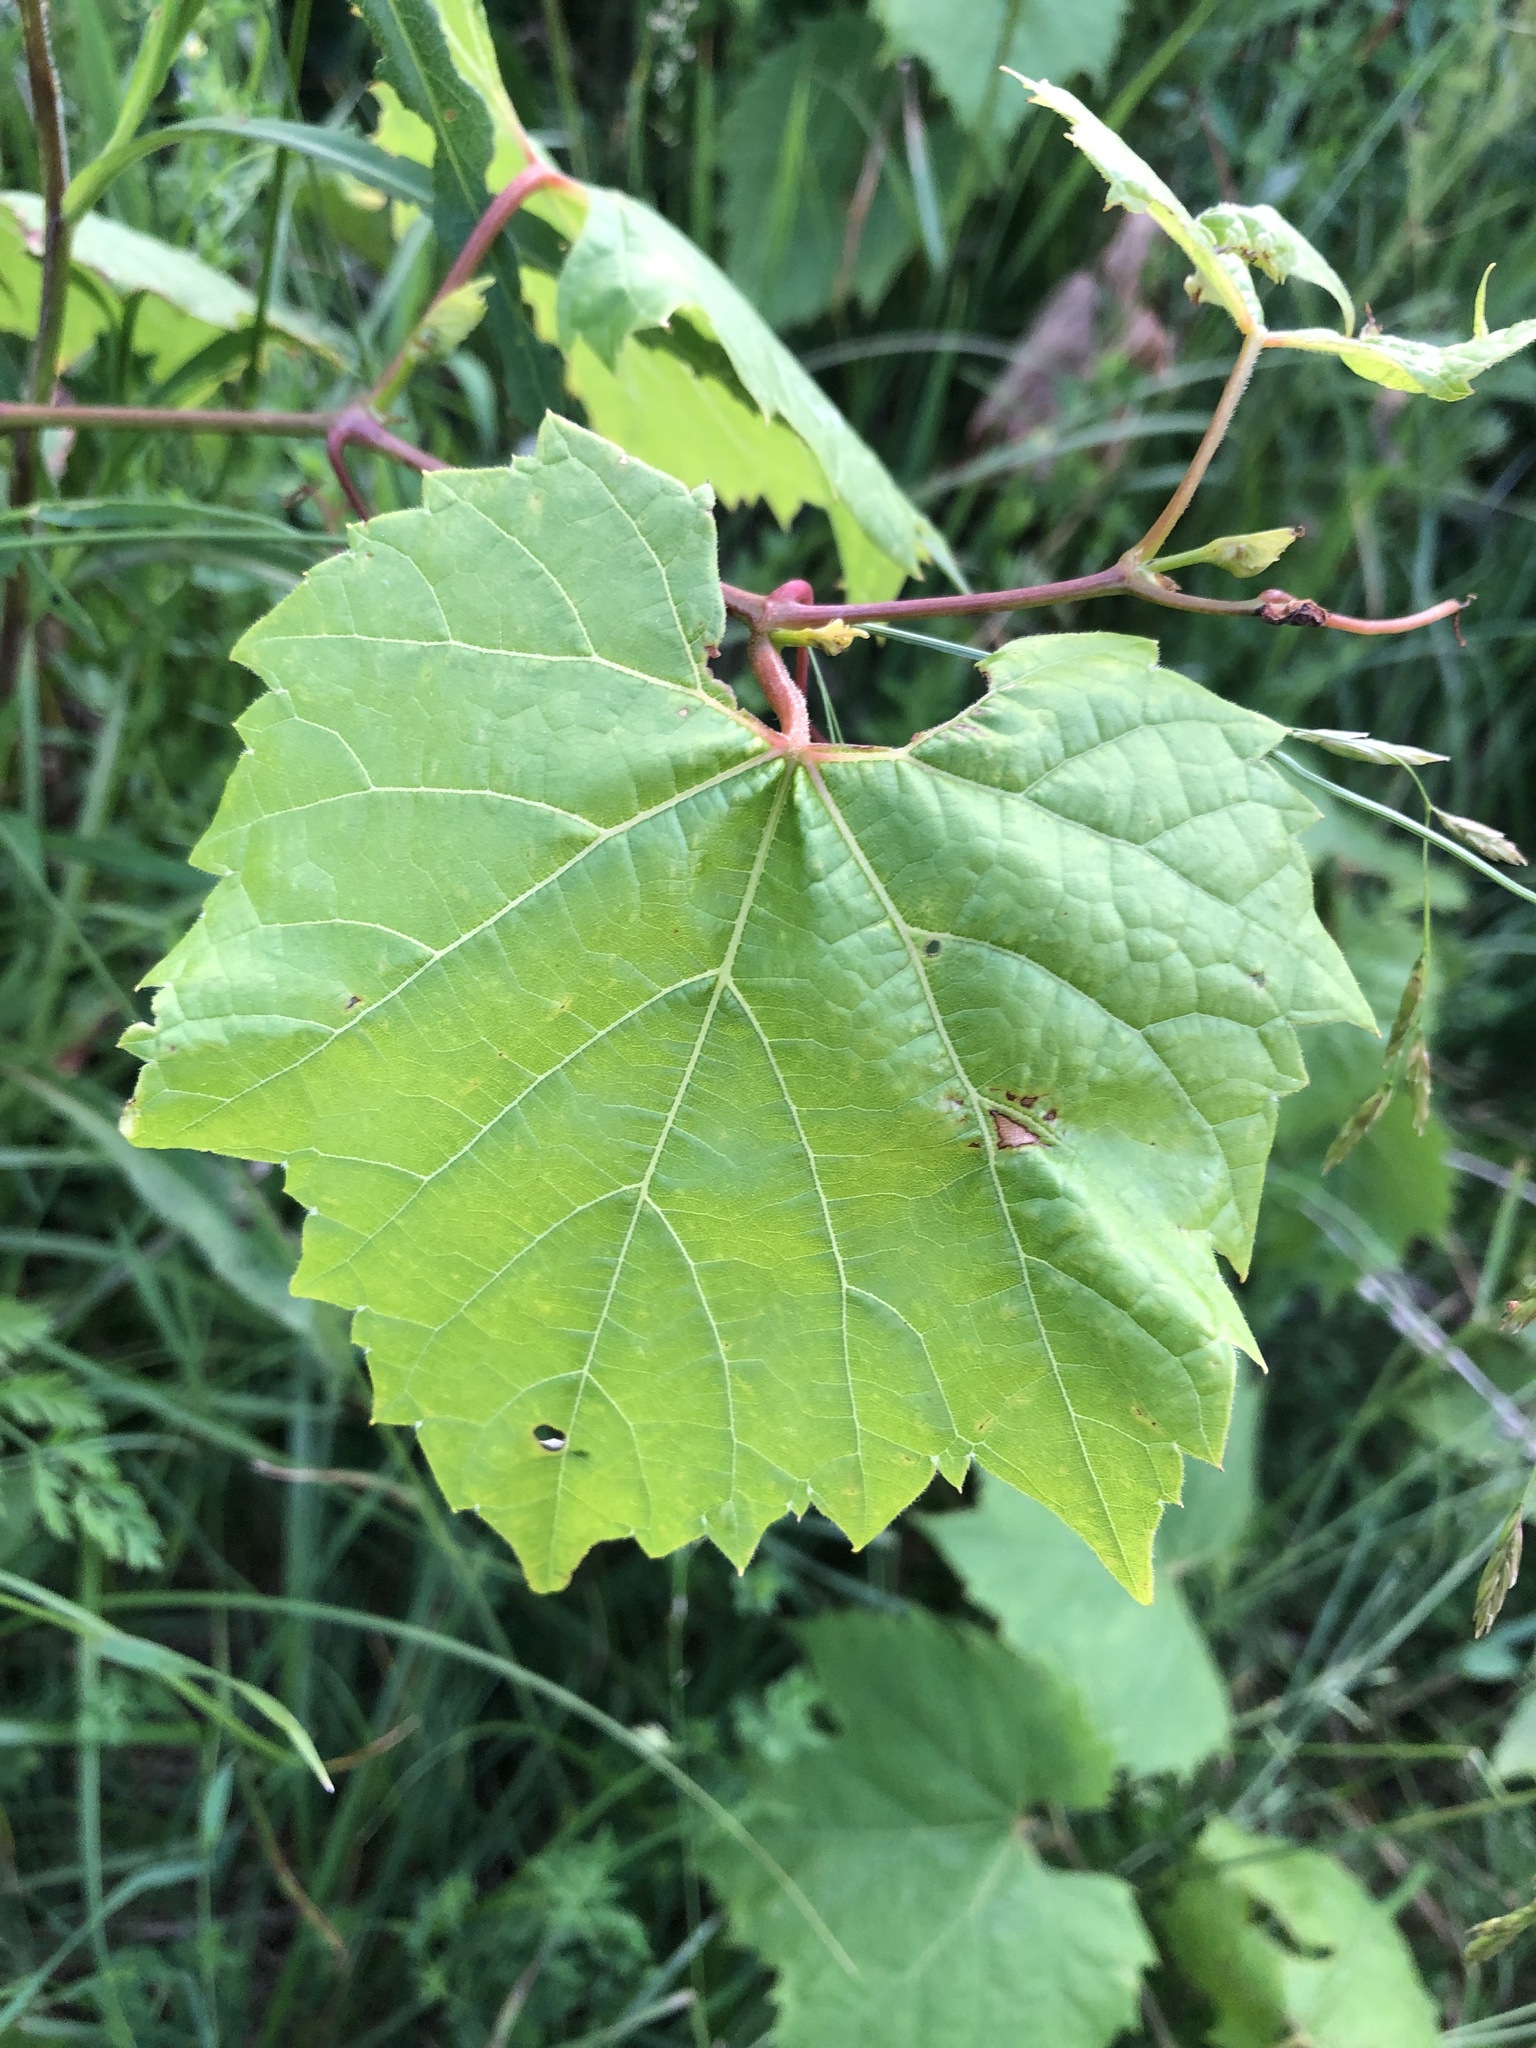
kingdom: Plantae
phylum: Tracheophyta
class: Magnoliopsida
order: Vitales
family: Vitaceae
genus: Vitis
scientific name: Vitis riparia
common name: Frost grape
